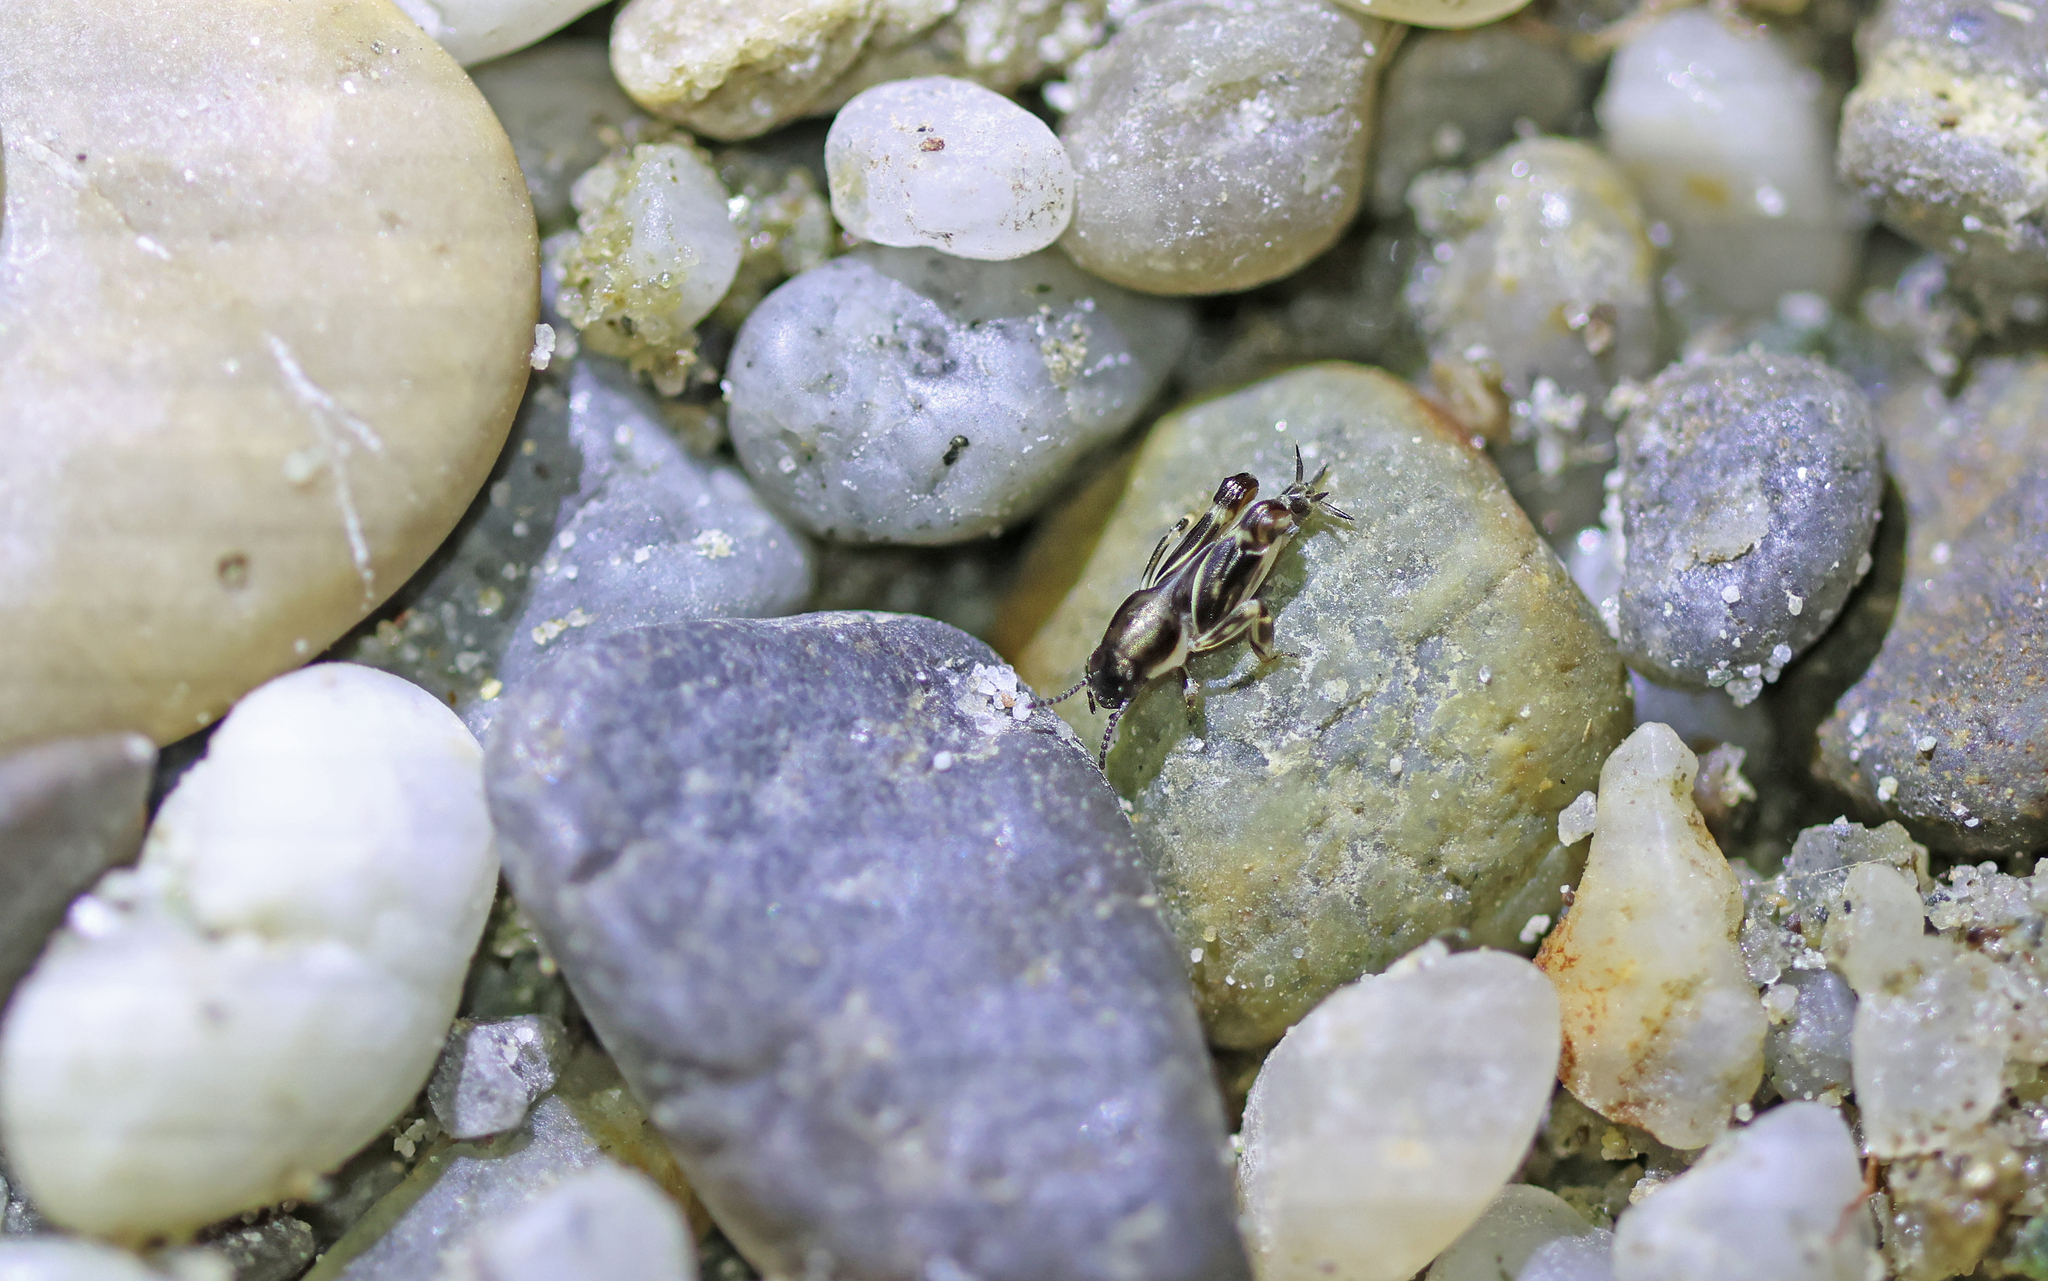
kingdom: Animalia
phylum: Arthropoda
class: Insecta
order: Orthoptera
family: Tridactylidae
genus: Xya
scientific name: Xya variegata
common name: Le tridactyle panaché
